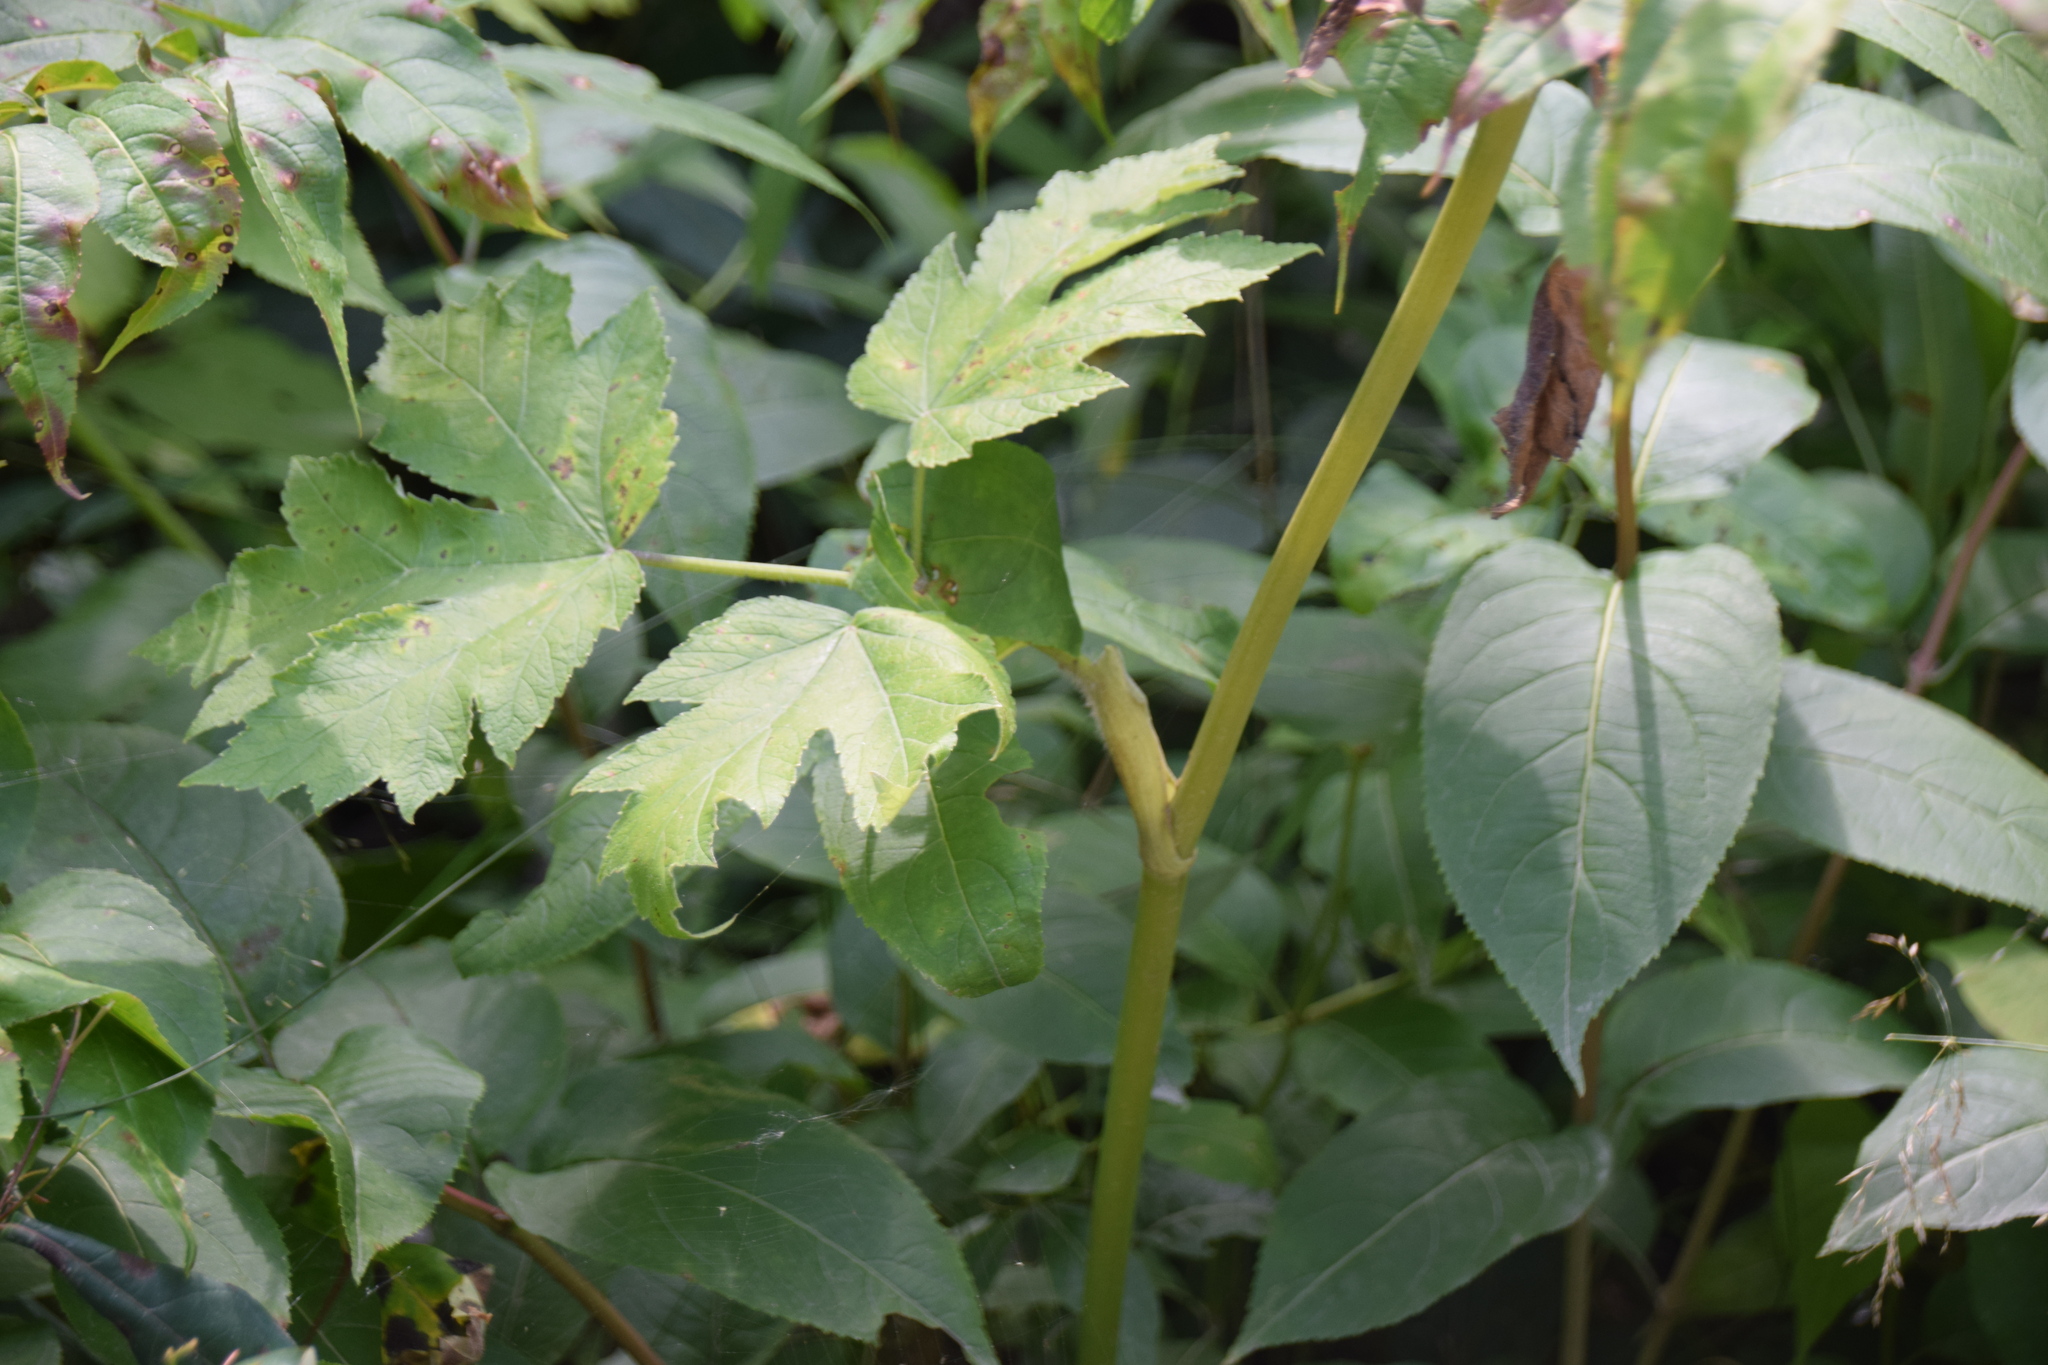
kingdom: Plantae
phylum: Tracheophyta
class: Magnoliopsida
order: Apiales
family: Apiaceae
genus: Heracleum
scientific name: Heracleum maximum
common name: American cow parsnip
